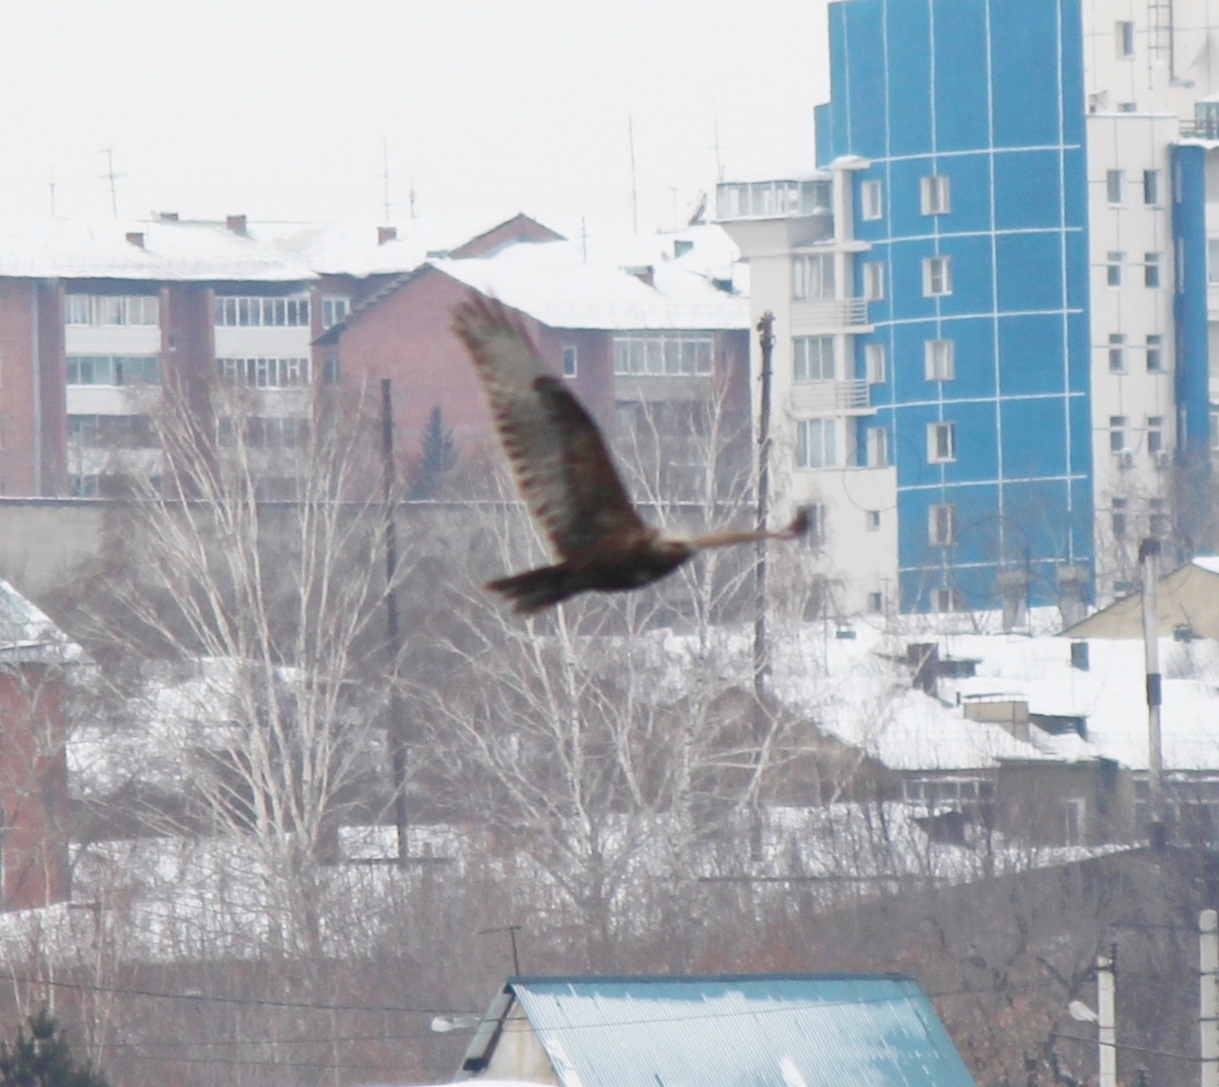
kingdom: Animalia
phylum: Chordata
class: Aves
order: Accipitriformes
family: Accipitridae
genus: Buteo
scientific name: Buteo hemilasius
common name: Upland buzzard
